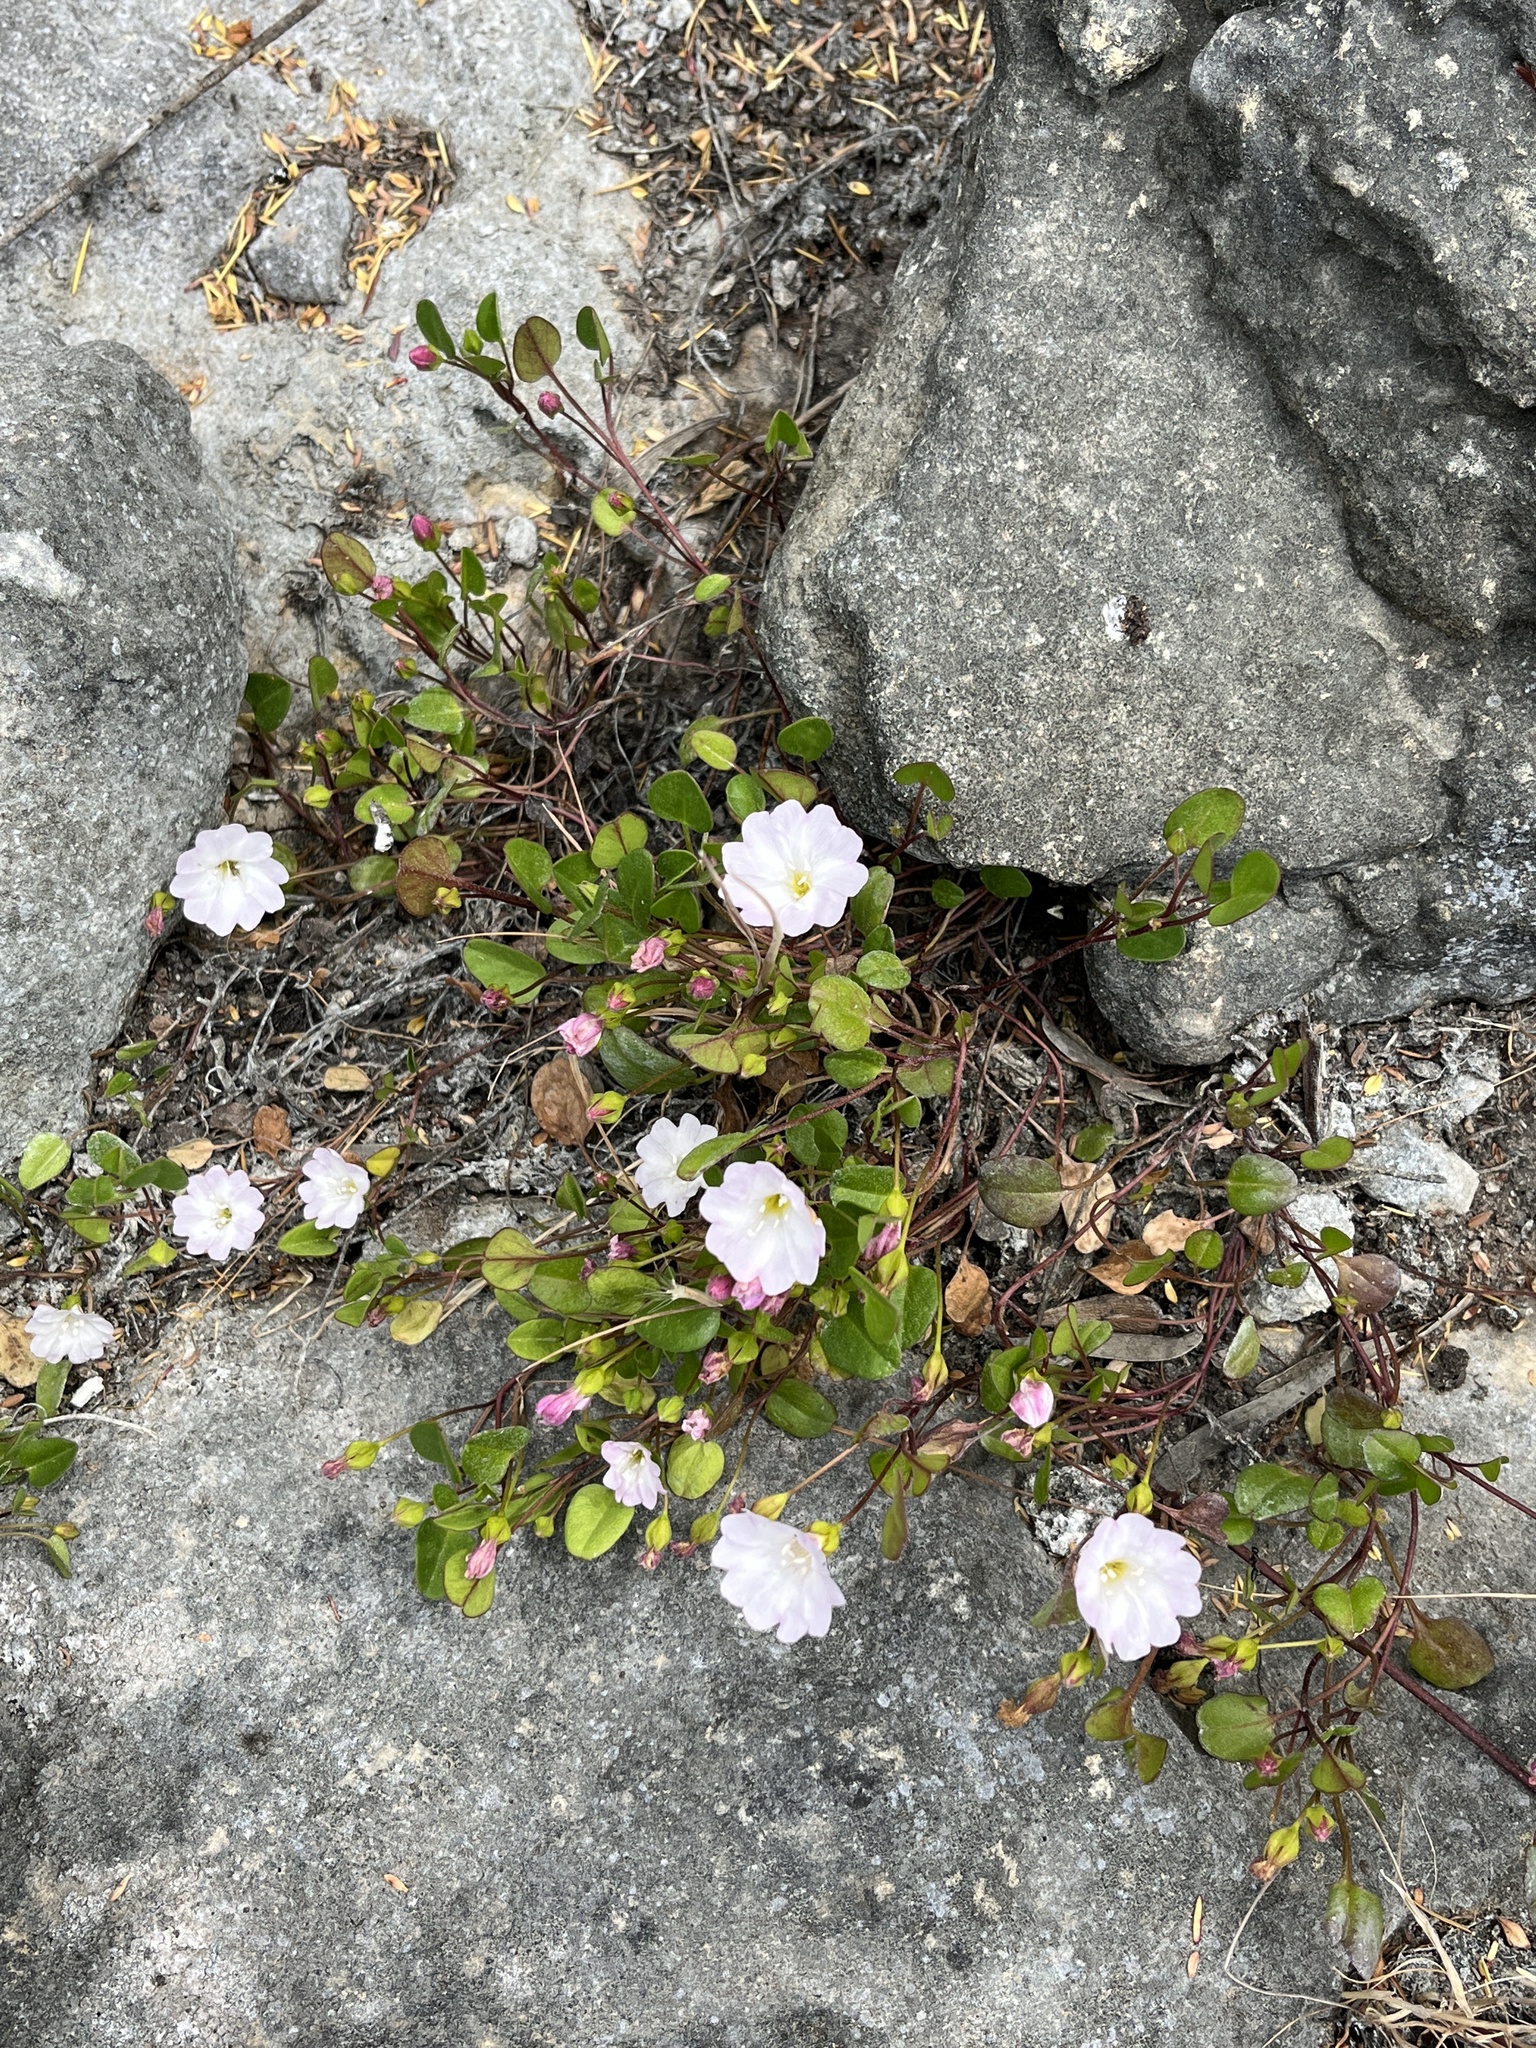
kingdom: Plantae
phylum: Tracheophyta
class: Magnoliopsida
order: Solanales
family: Convolvulaceae
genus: Falkia
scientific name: Falkia repens
